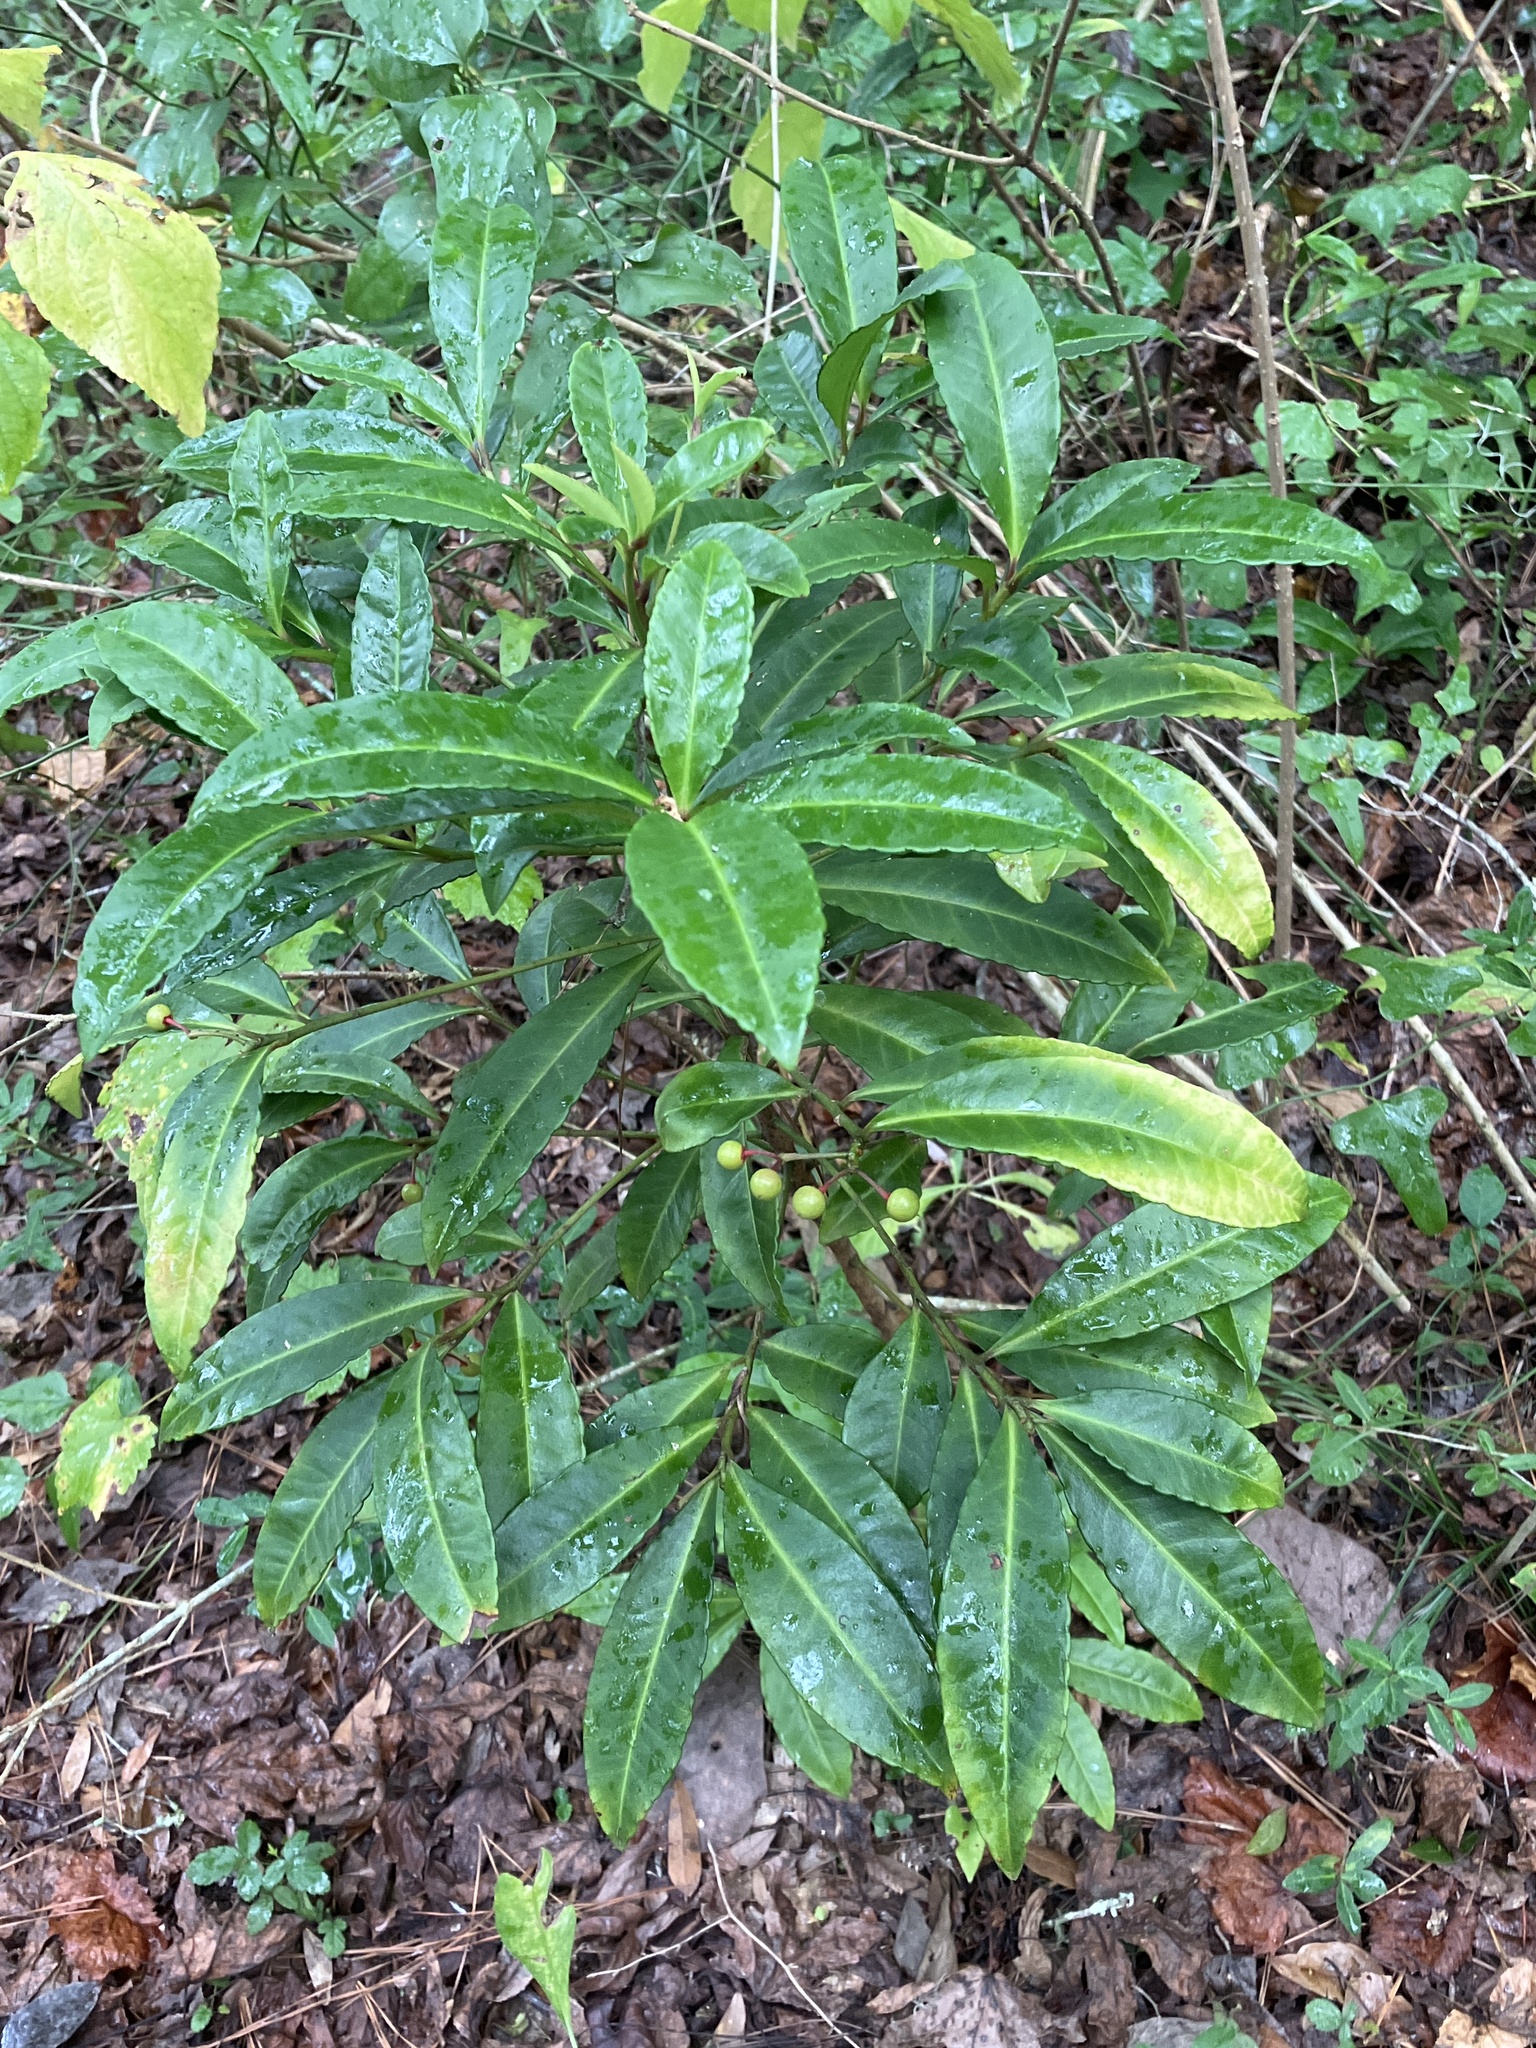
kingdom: Plantae
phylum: Tracheophyta
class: Magnoliopsida
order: Ericales
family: Primulaceae
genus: Ardisia
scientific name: Ardisia crenata
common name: Hen's eyes
